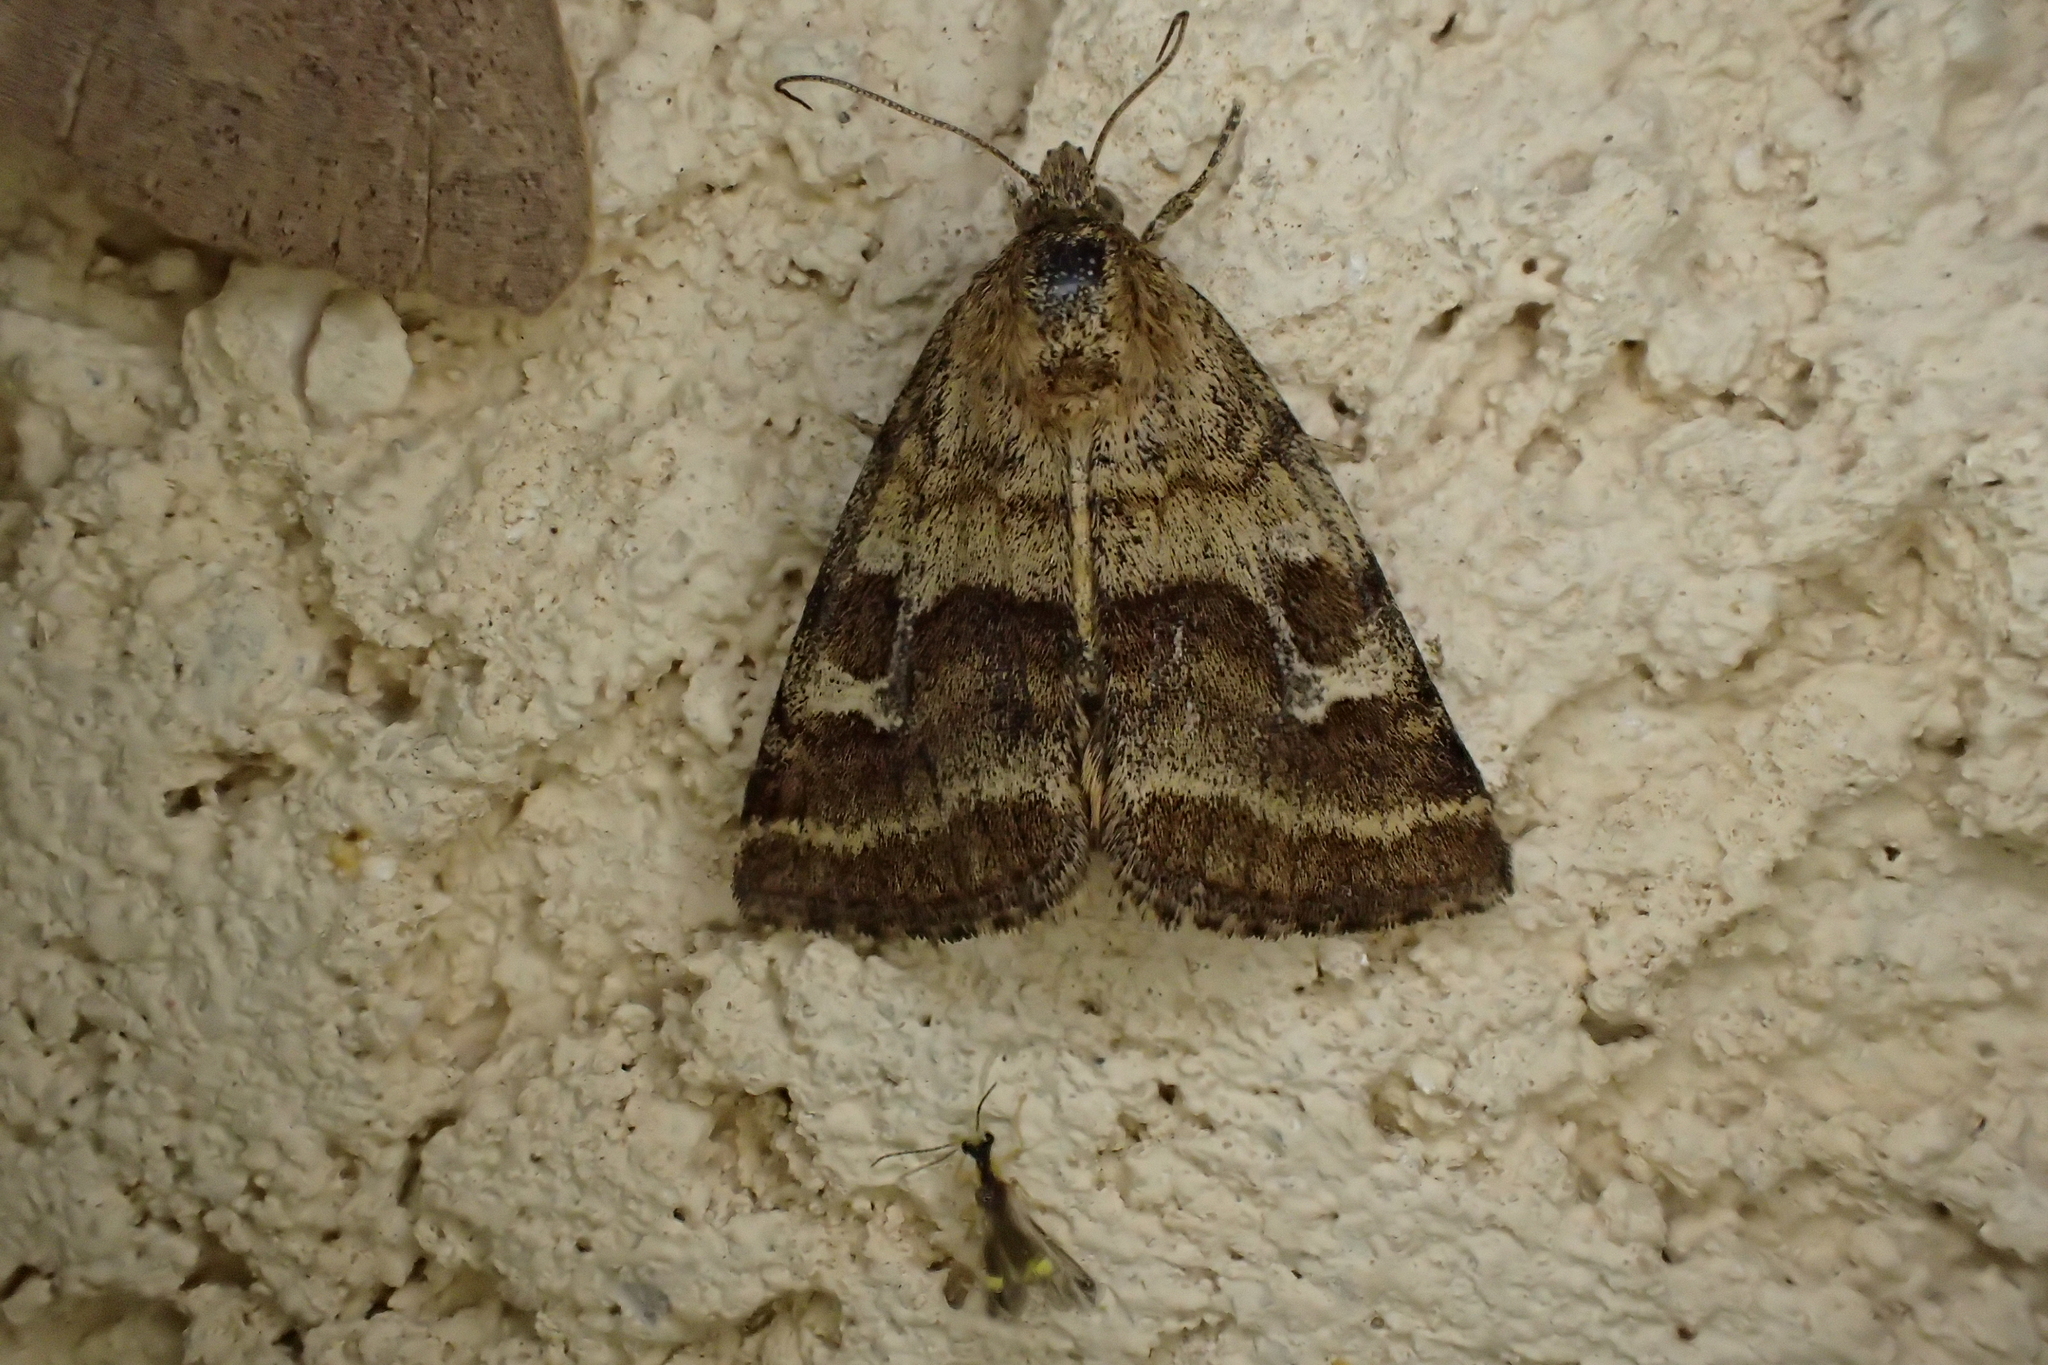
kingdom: Animalia
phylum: Arthropoda
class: Insecta
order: Lepidoptera
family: Noctuidae
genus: Synthymia
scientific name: Synthymia fixa
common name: Goldwing
